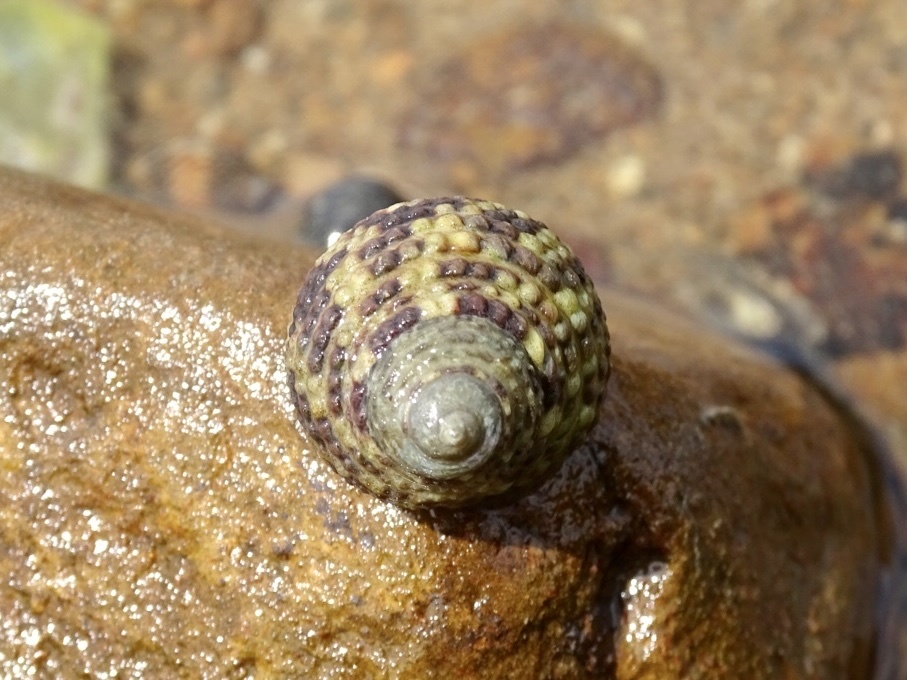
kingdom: Animalia
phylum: Mollusca
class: Gastropoda
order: Trochida
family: Trochidae
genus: Monodonta
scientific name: Monodonta labio
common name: Labio
